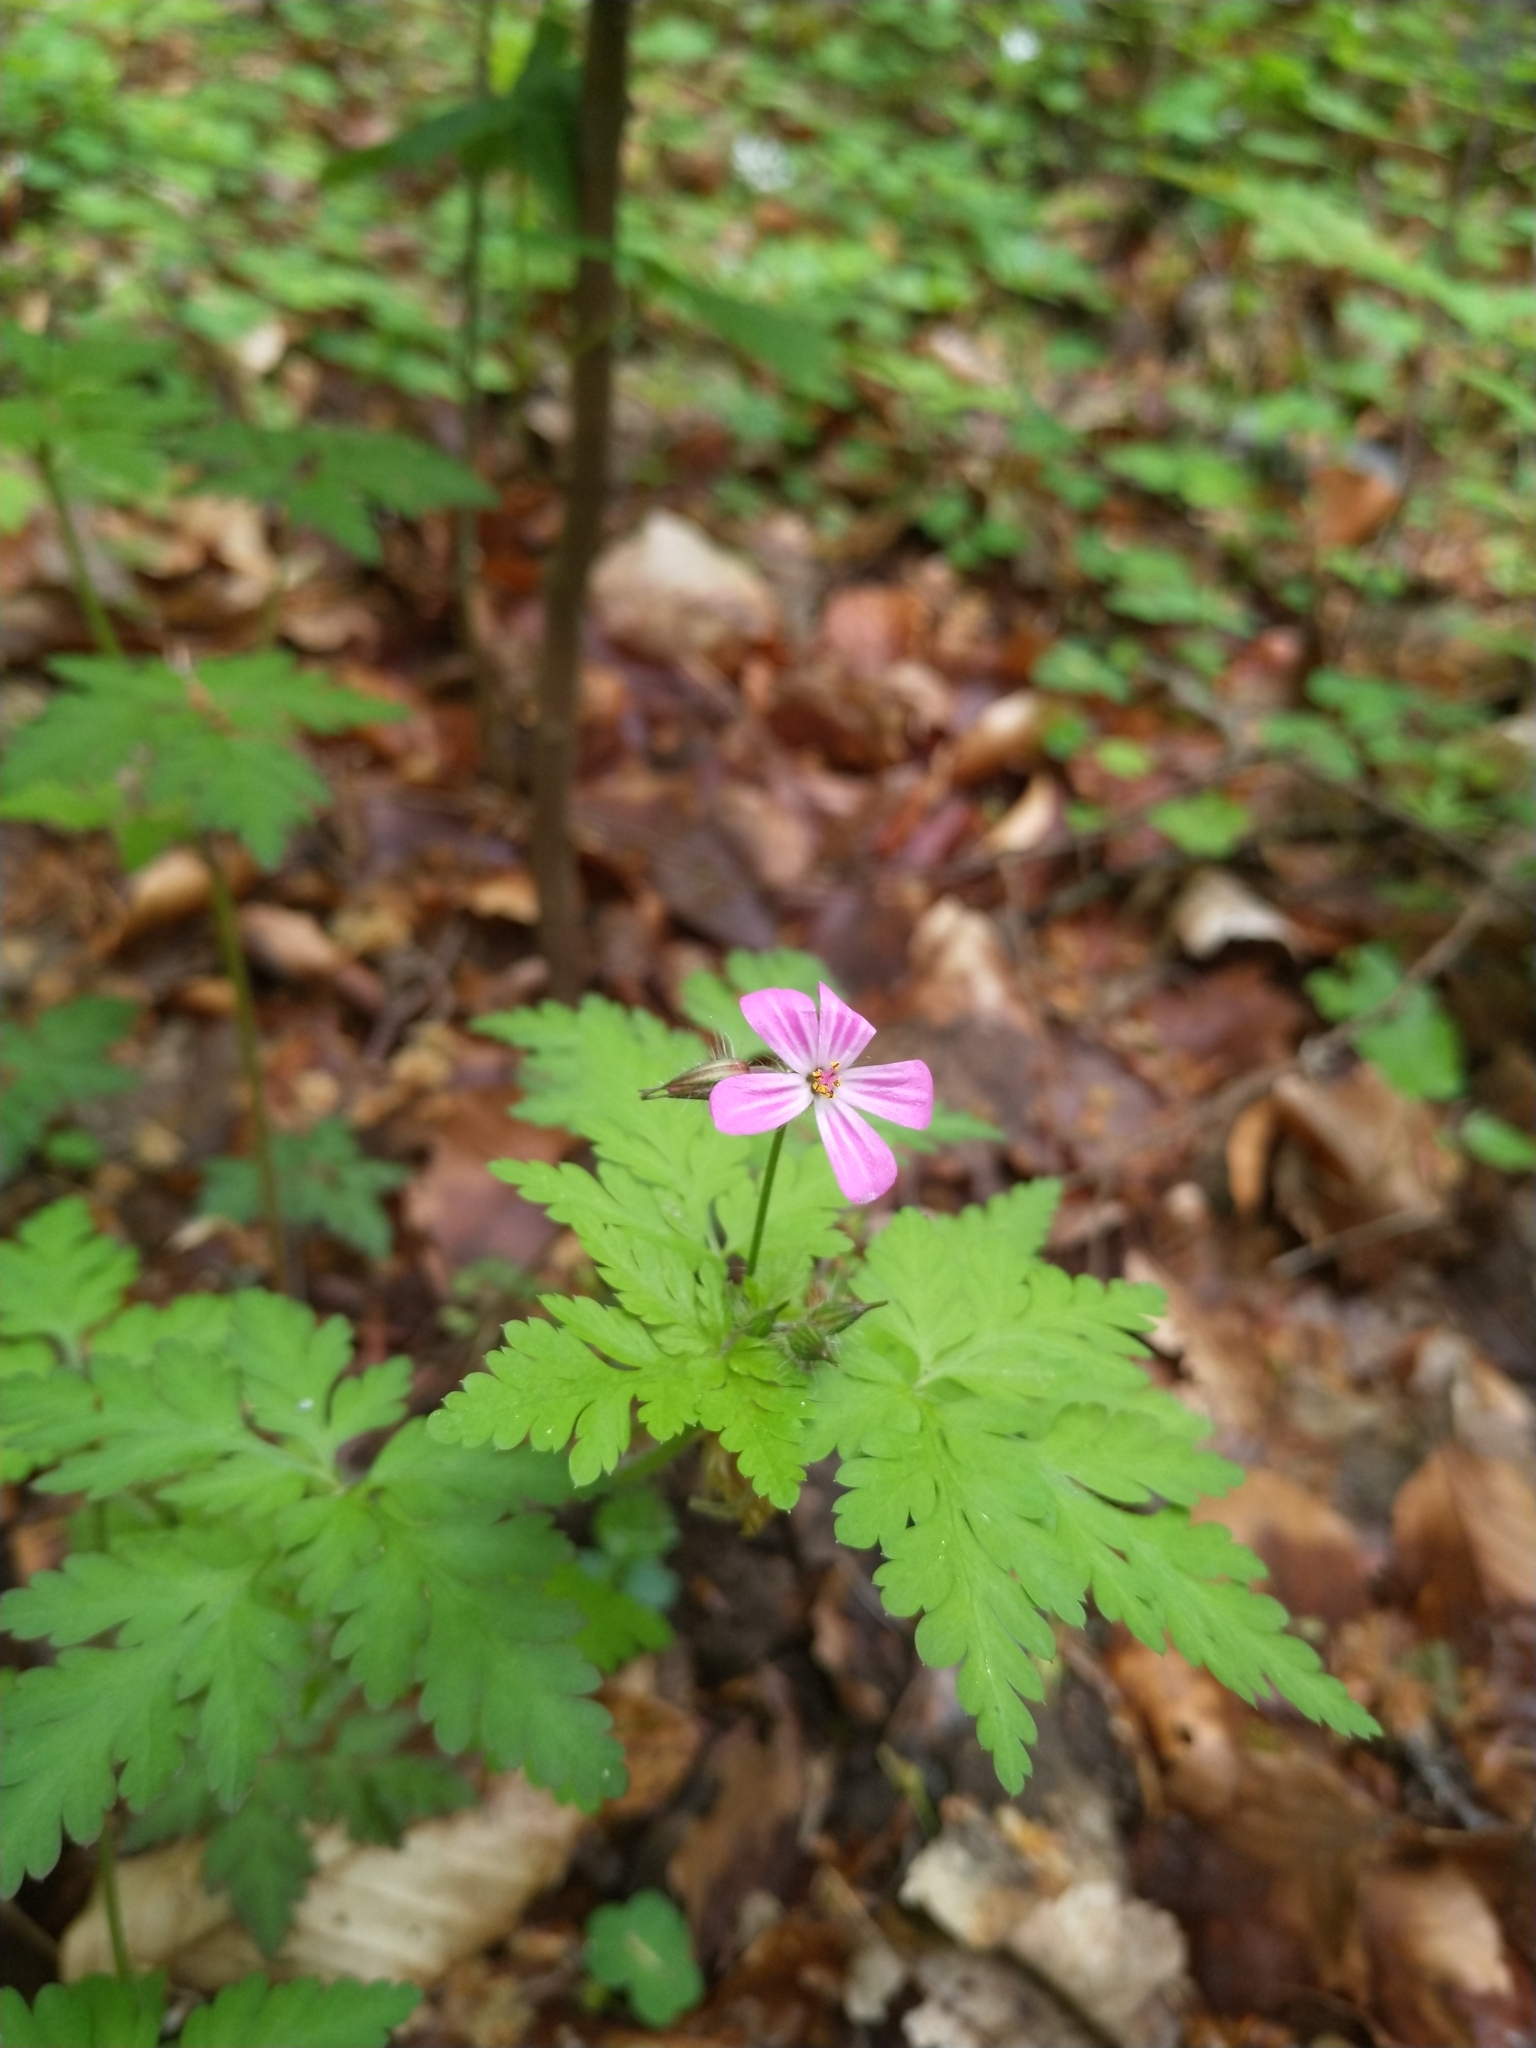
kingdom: Plantae
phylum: Tracheophyta
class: Magnoliopsida
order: Geraniales
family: Geraniaceae
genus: Geranium
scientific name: Geranium robertianum
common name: Herb-robert
